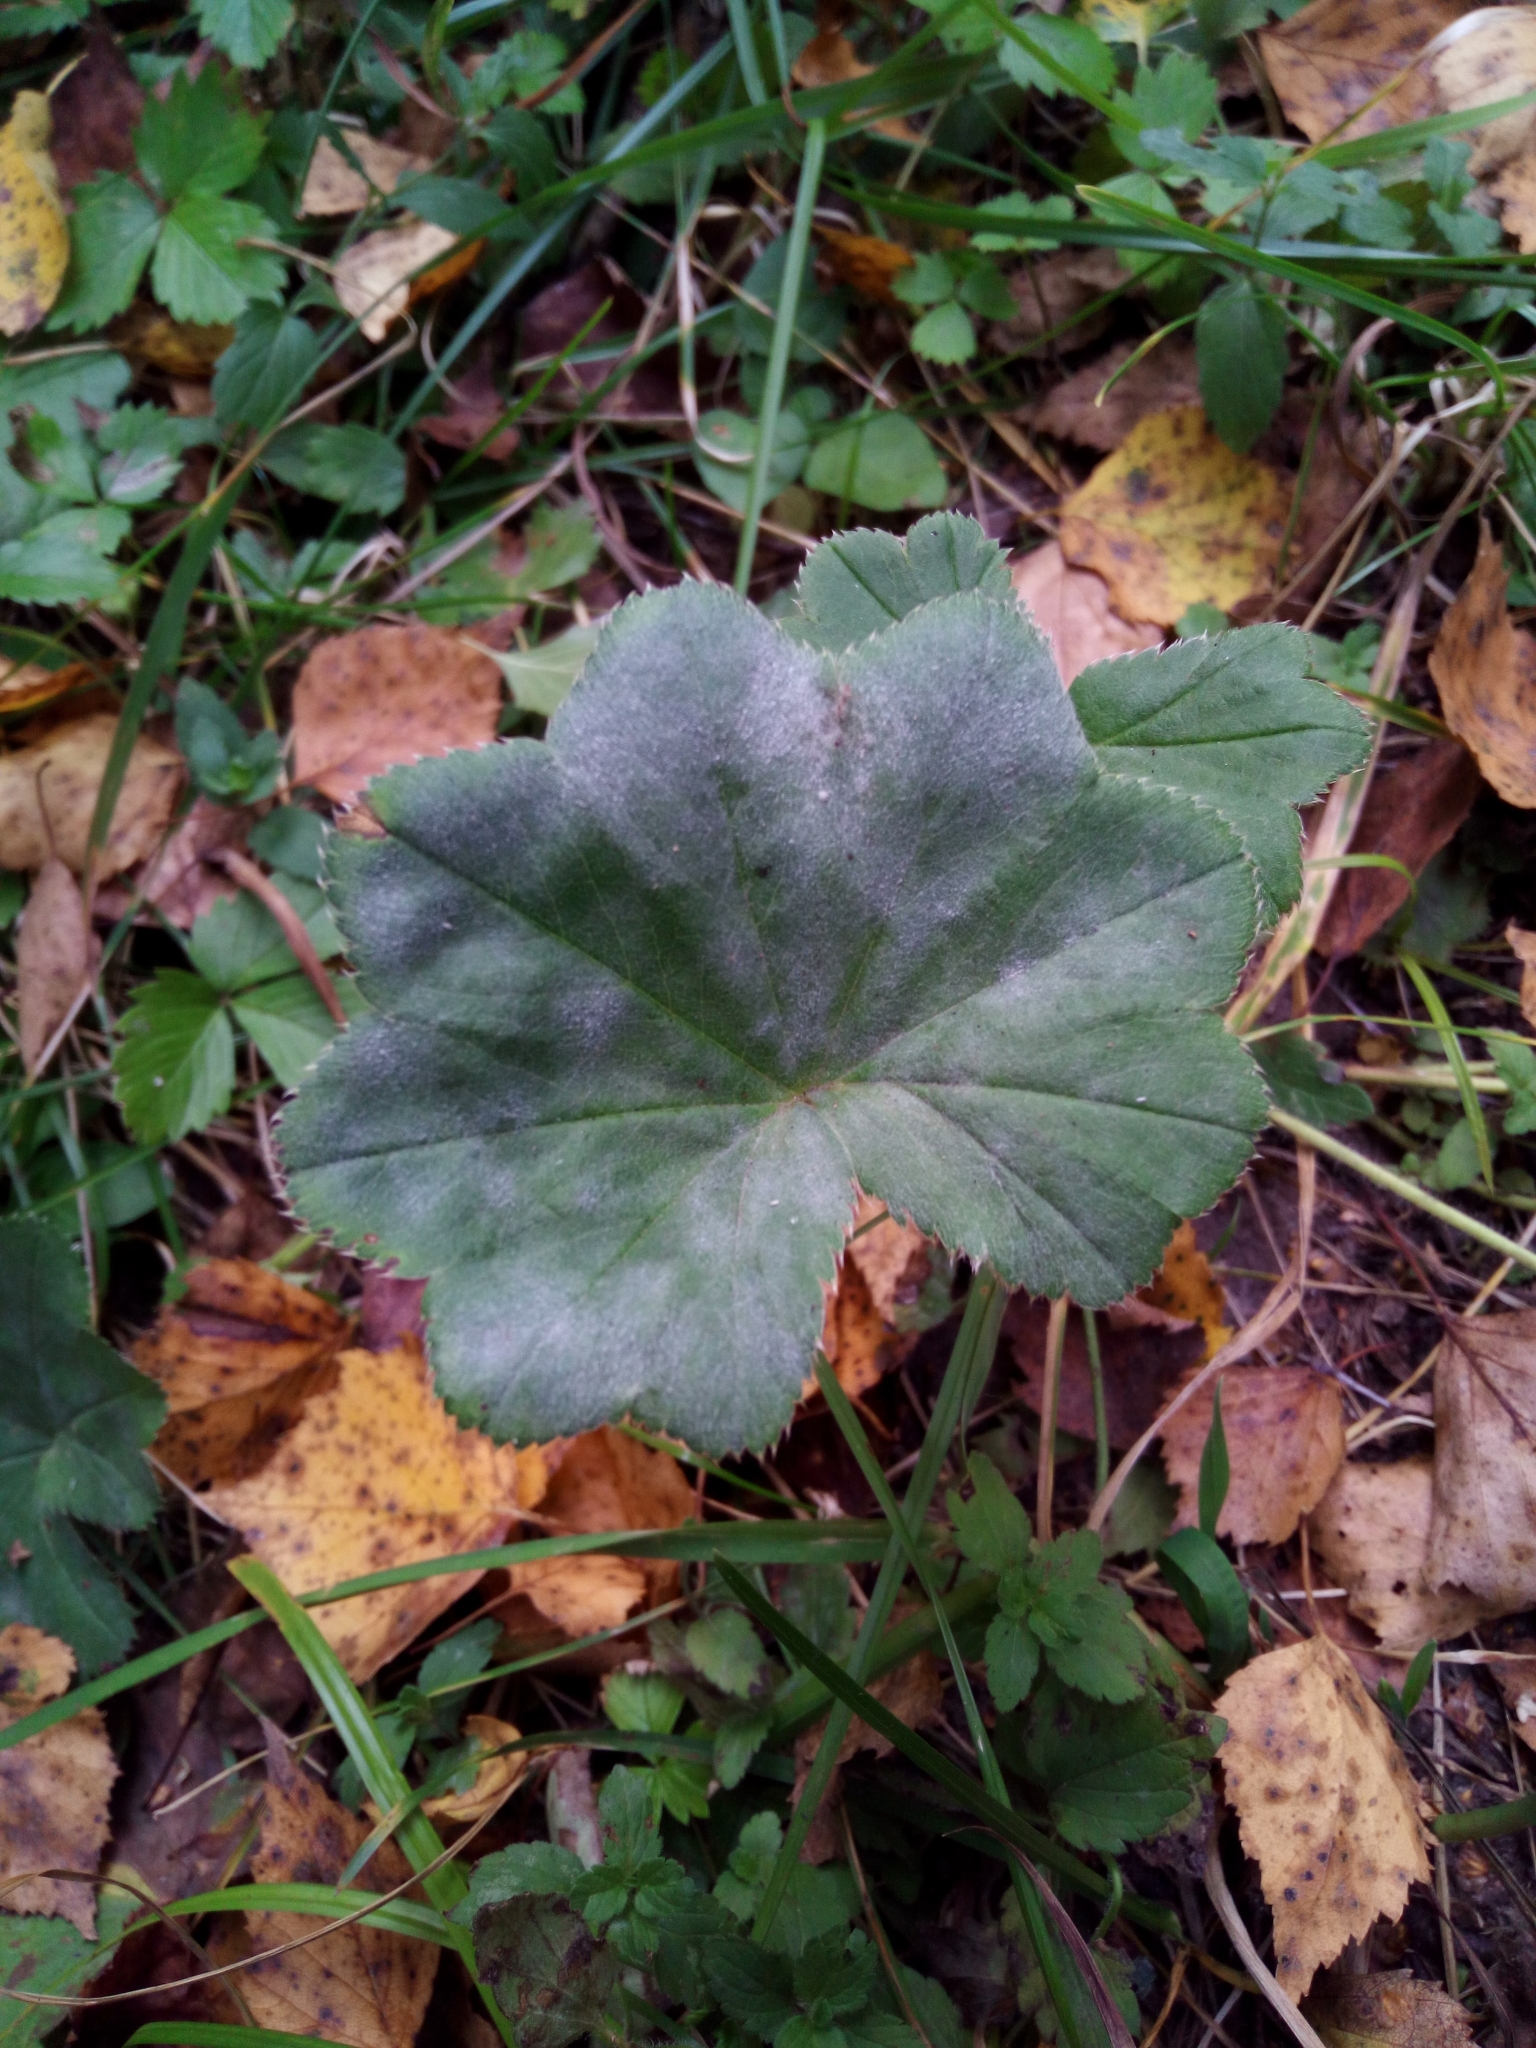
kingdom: Plantae
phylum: Tracheophyta
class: Magnoliopsida
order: Rosales
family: Rosaceae
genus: Alchemilla
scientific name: Alchemilla
